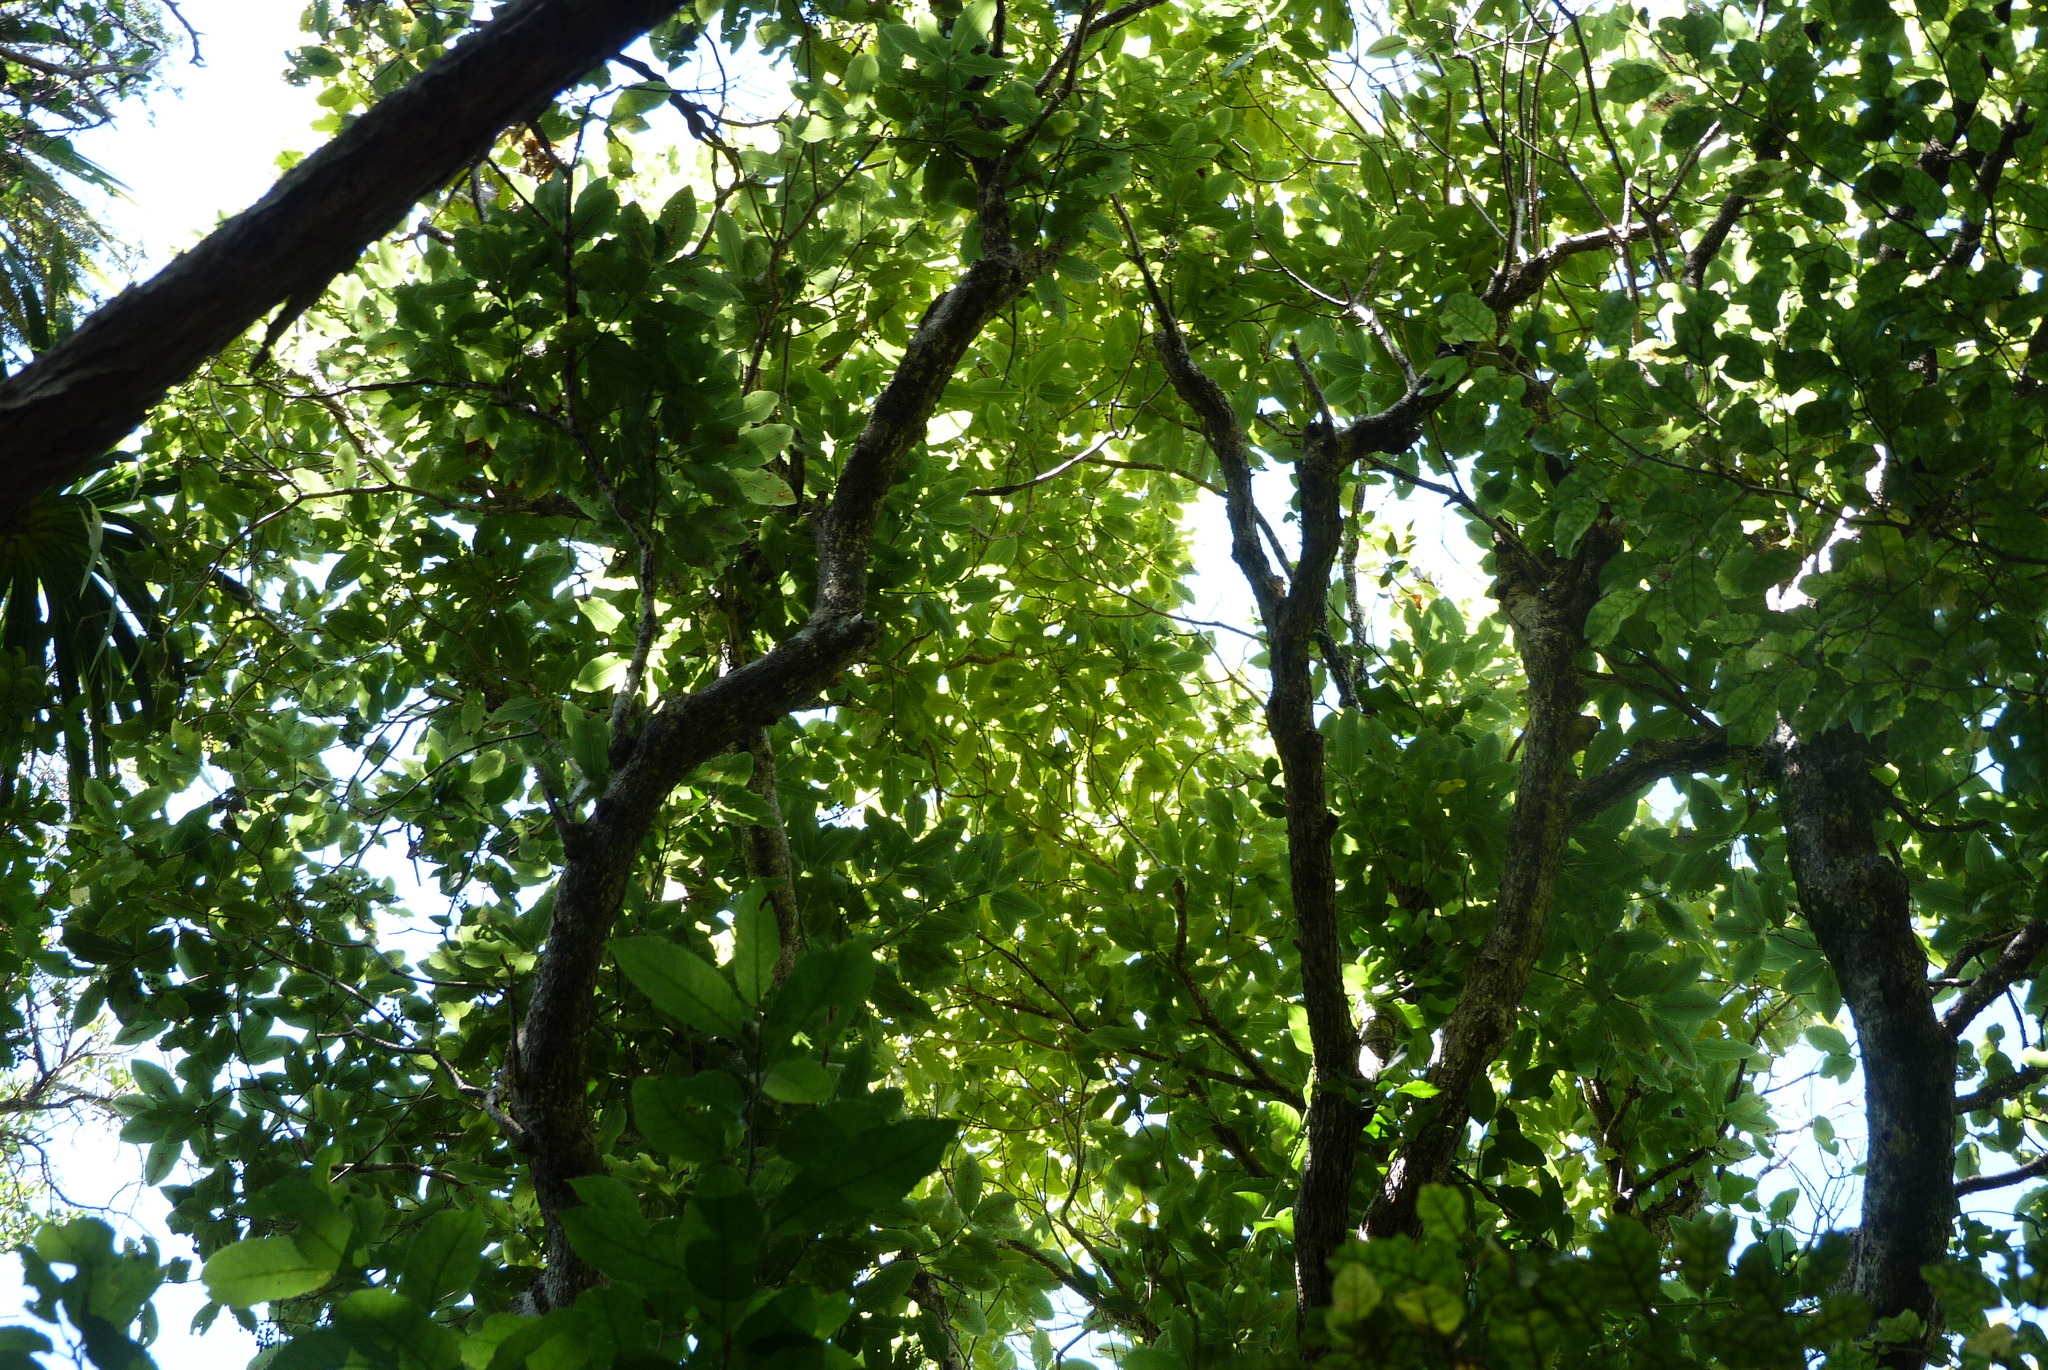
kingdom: Plantae
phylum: Tracheophyta
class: Magnoliopsida
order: Apiales
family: Pittosporaceae
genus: Pittosporum
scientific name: Pittosporum eugenioides
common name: Lemonwood
